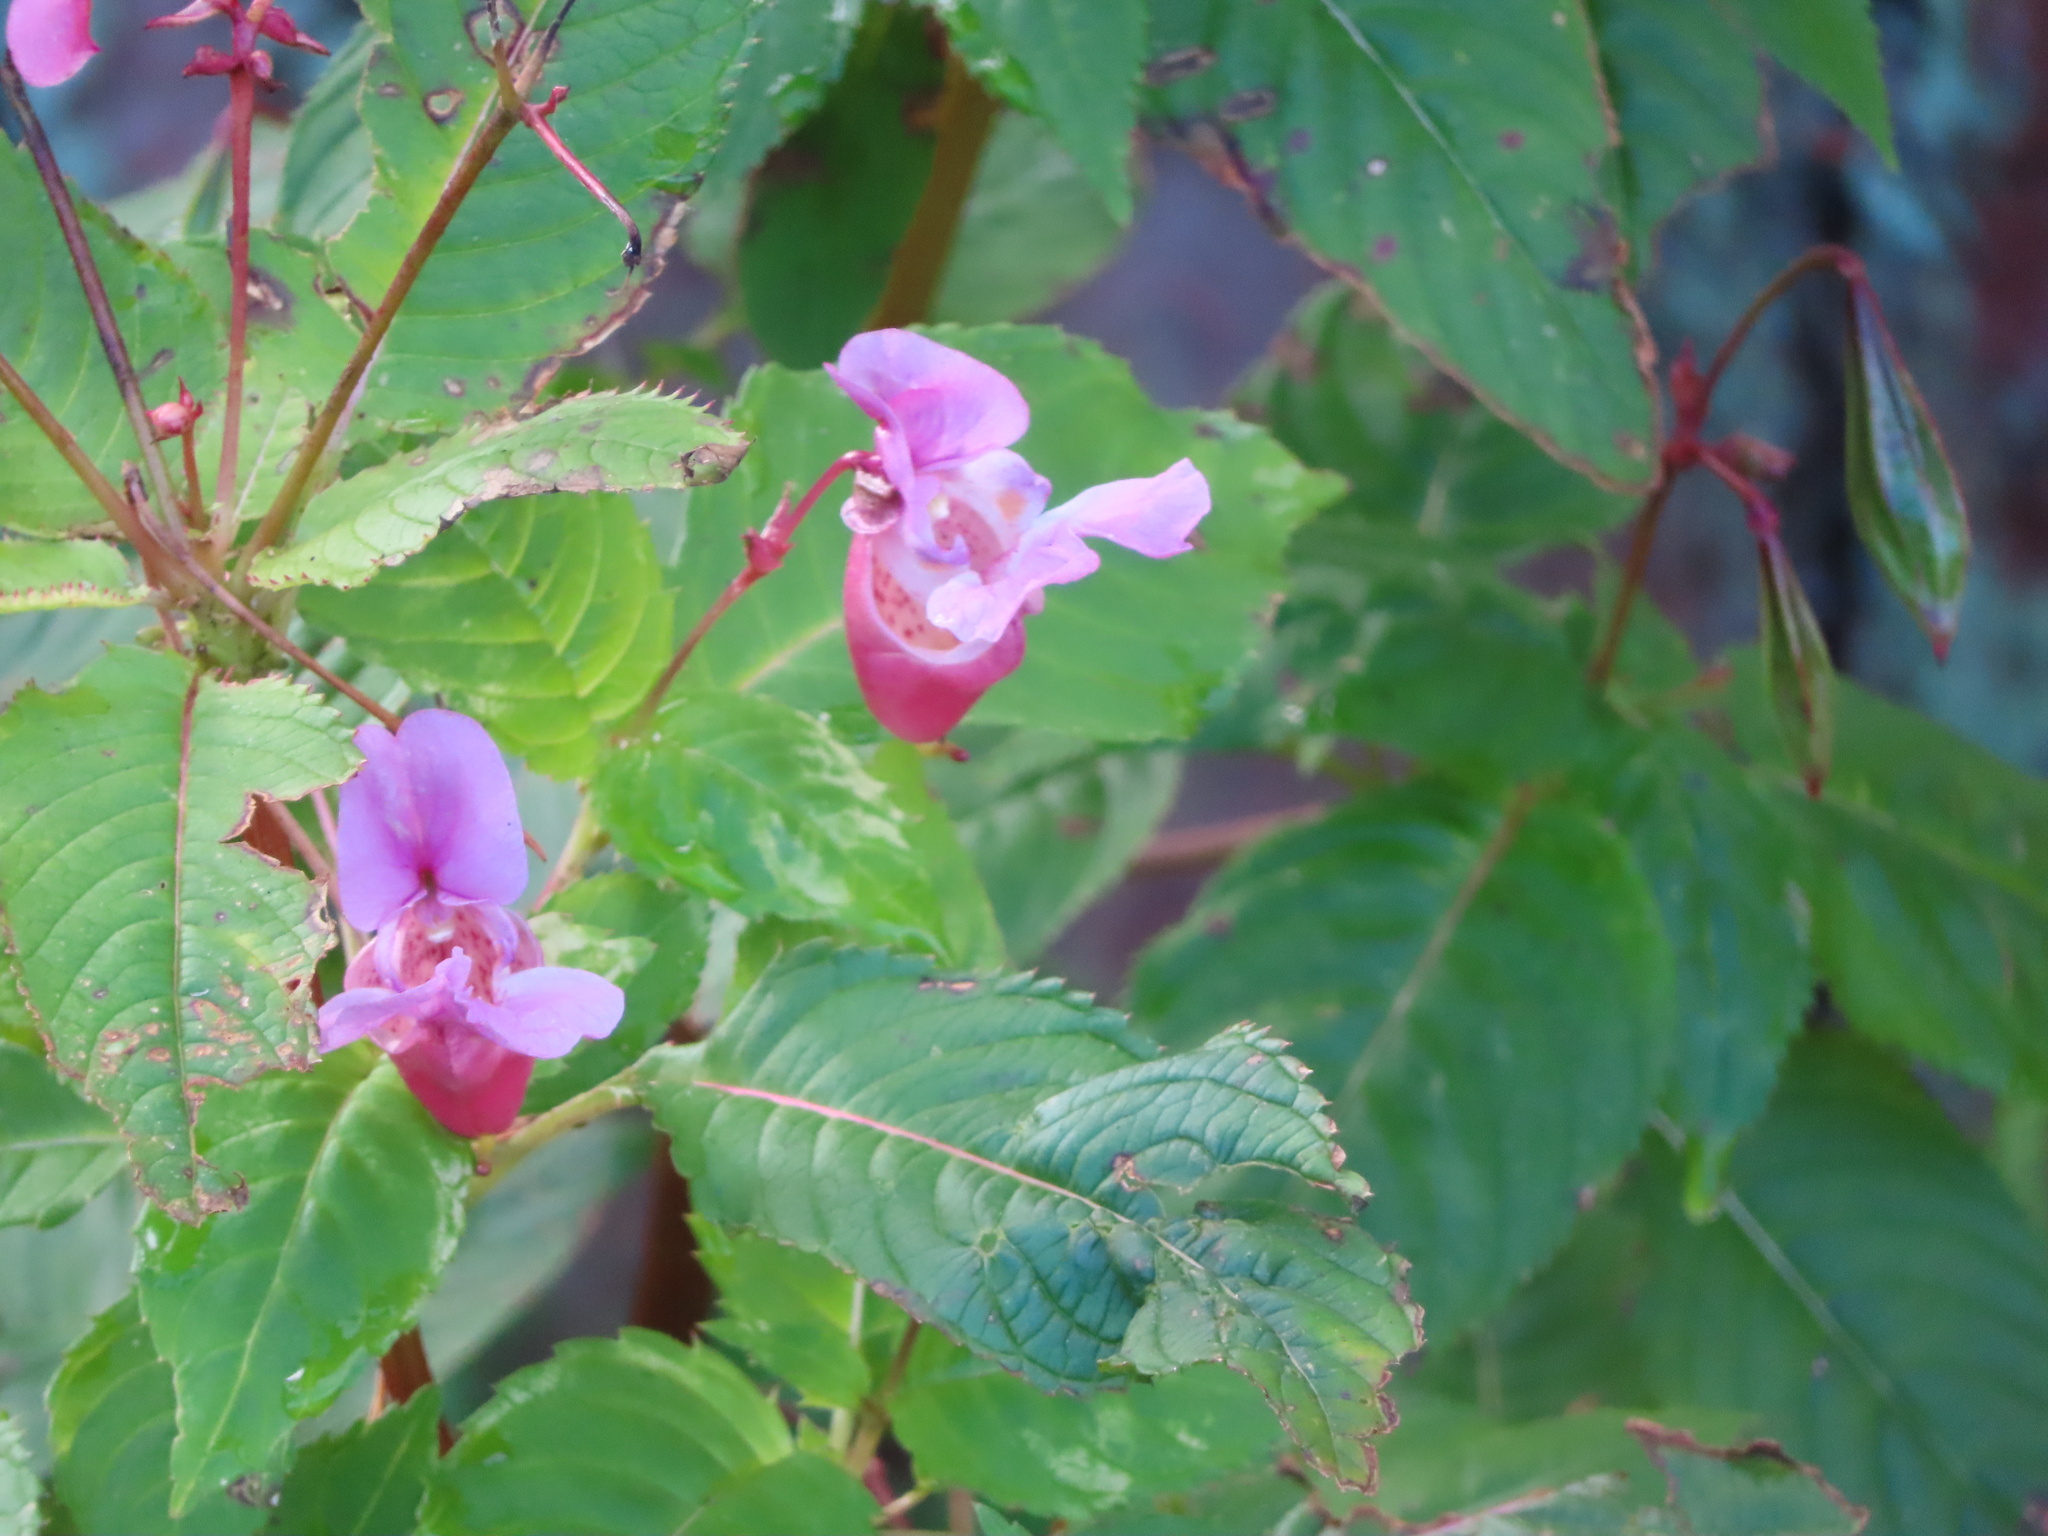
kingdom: Plantae
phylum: Tracheophyta
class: Magnoliopsida
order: Ericales
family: Balsaminaceae
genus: Impatiens
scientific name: Impatiens glandulifera
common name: Himalayan balsam
